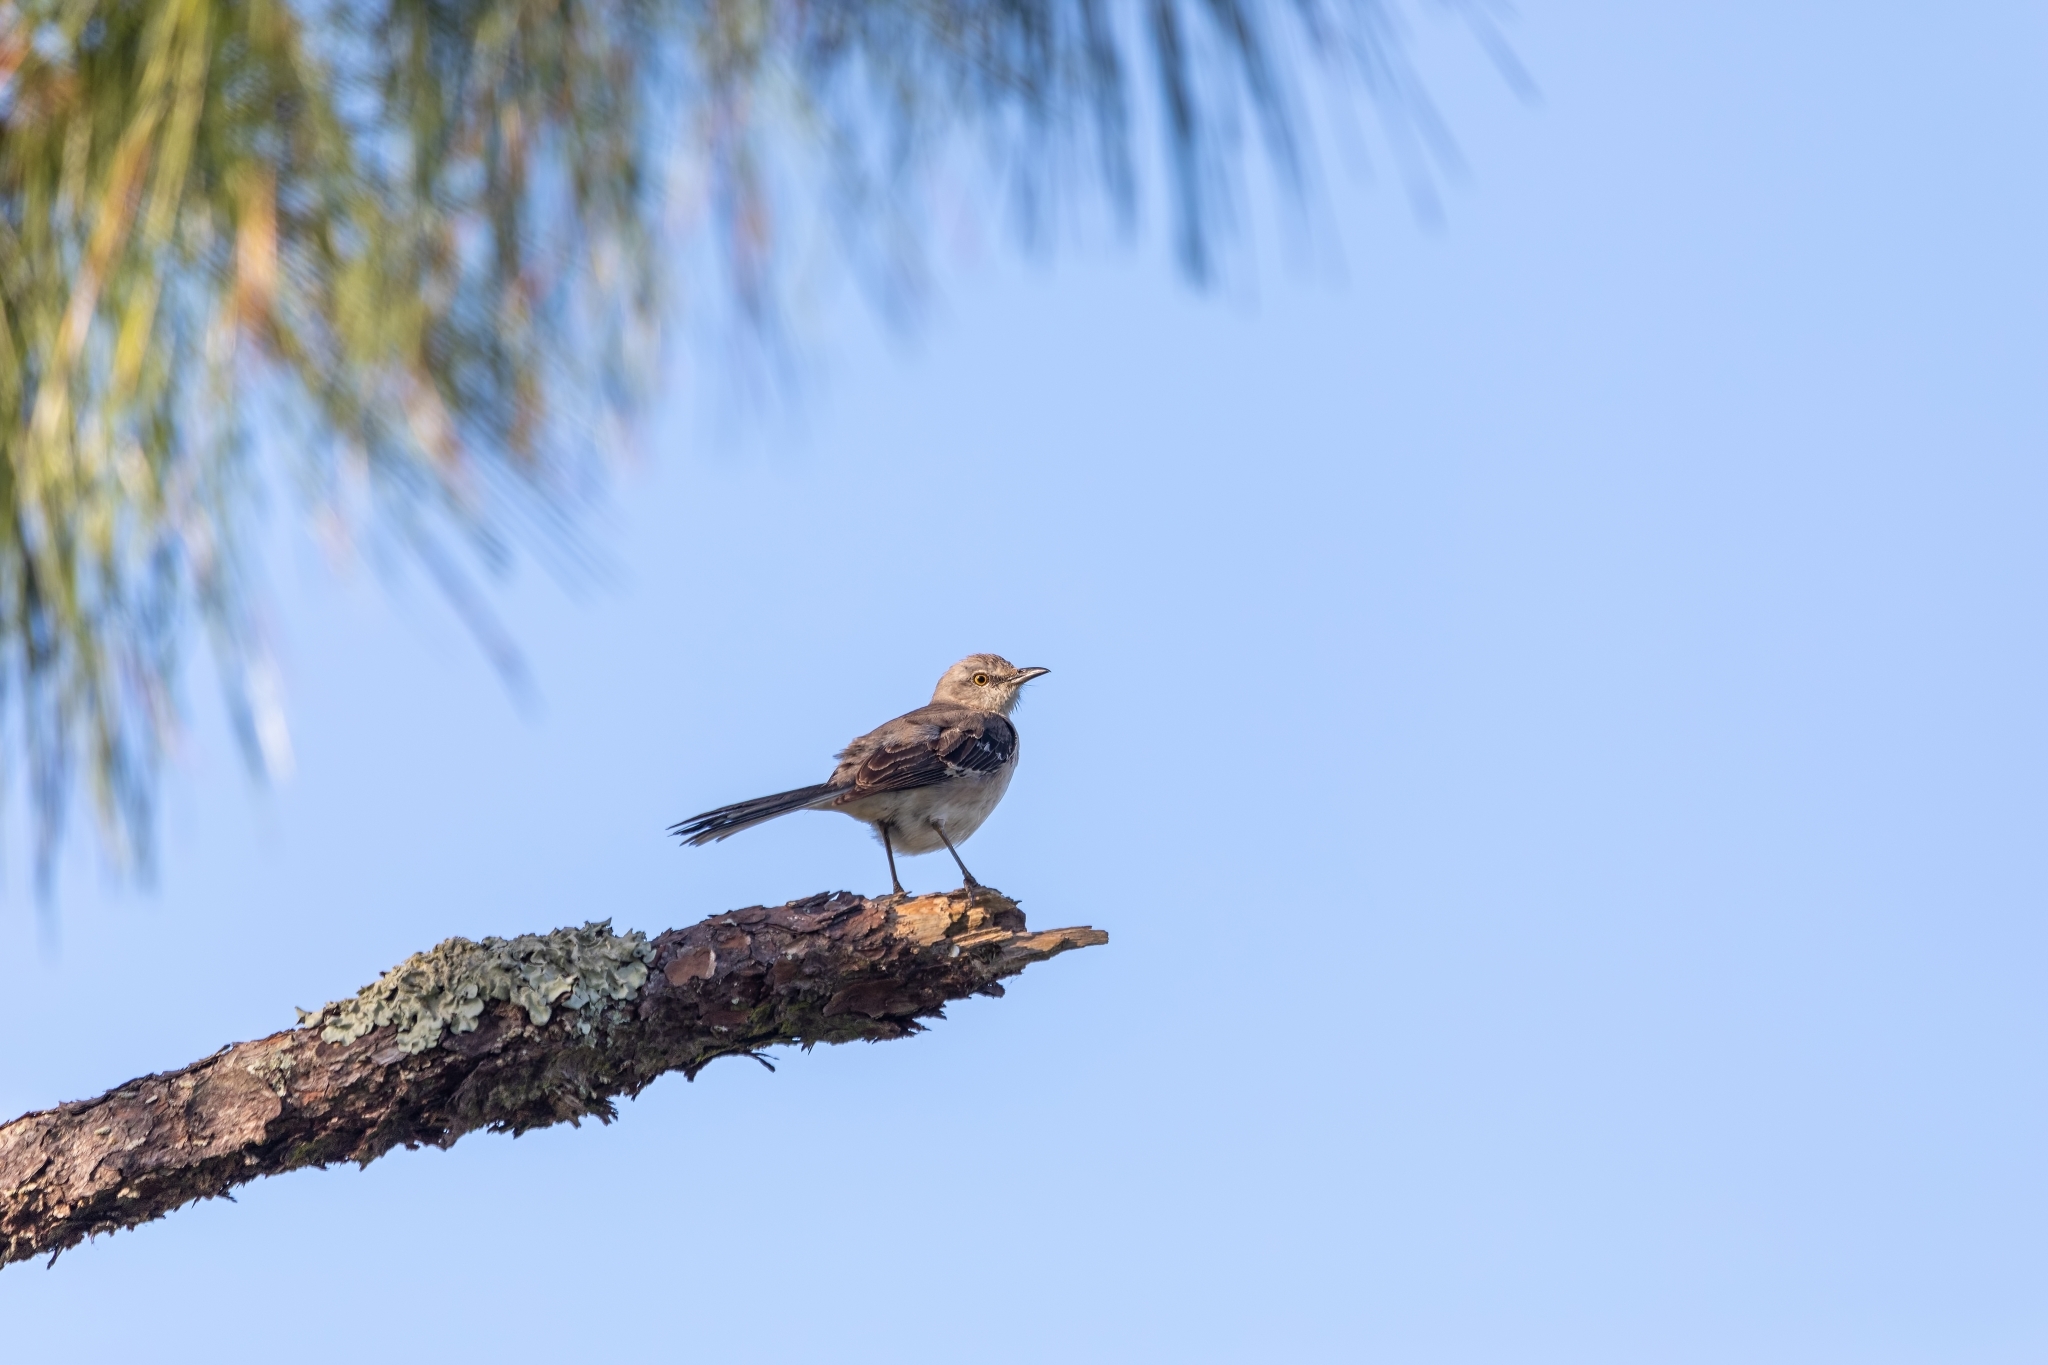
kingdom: Animalia
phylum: Chordata
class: Aves
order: Passeriformes
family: Mimidae
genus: Mimus
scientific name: Mimus polyglottos
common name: Northern mockingbird
